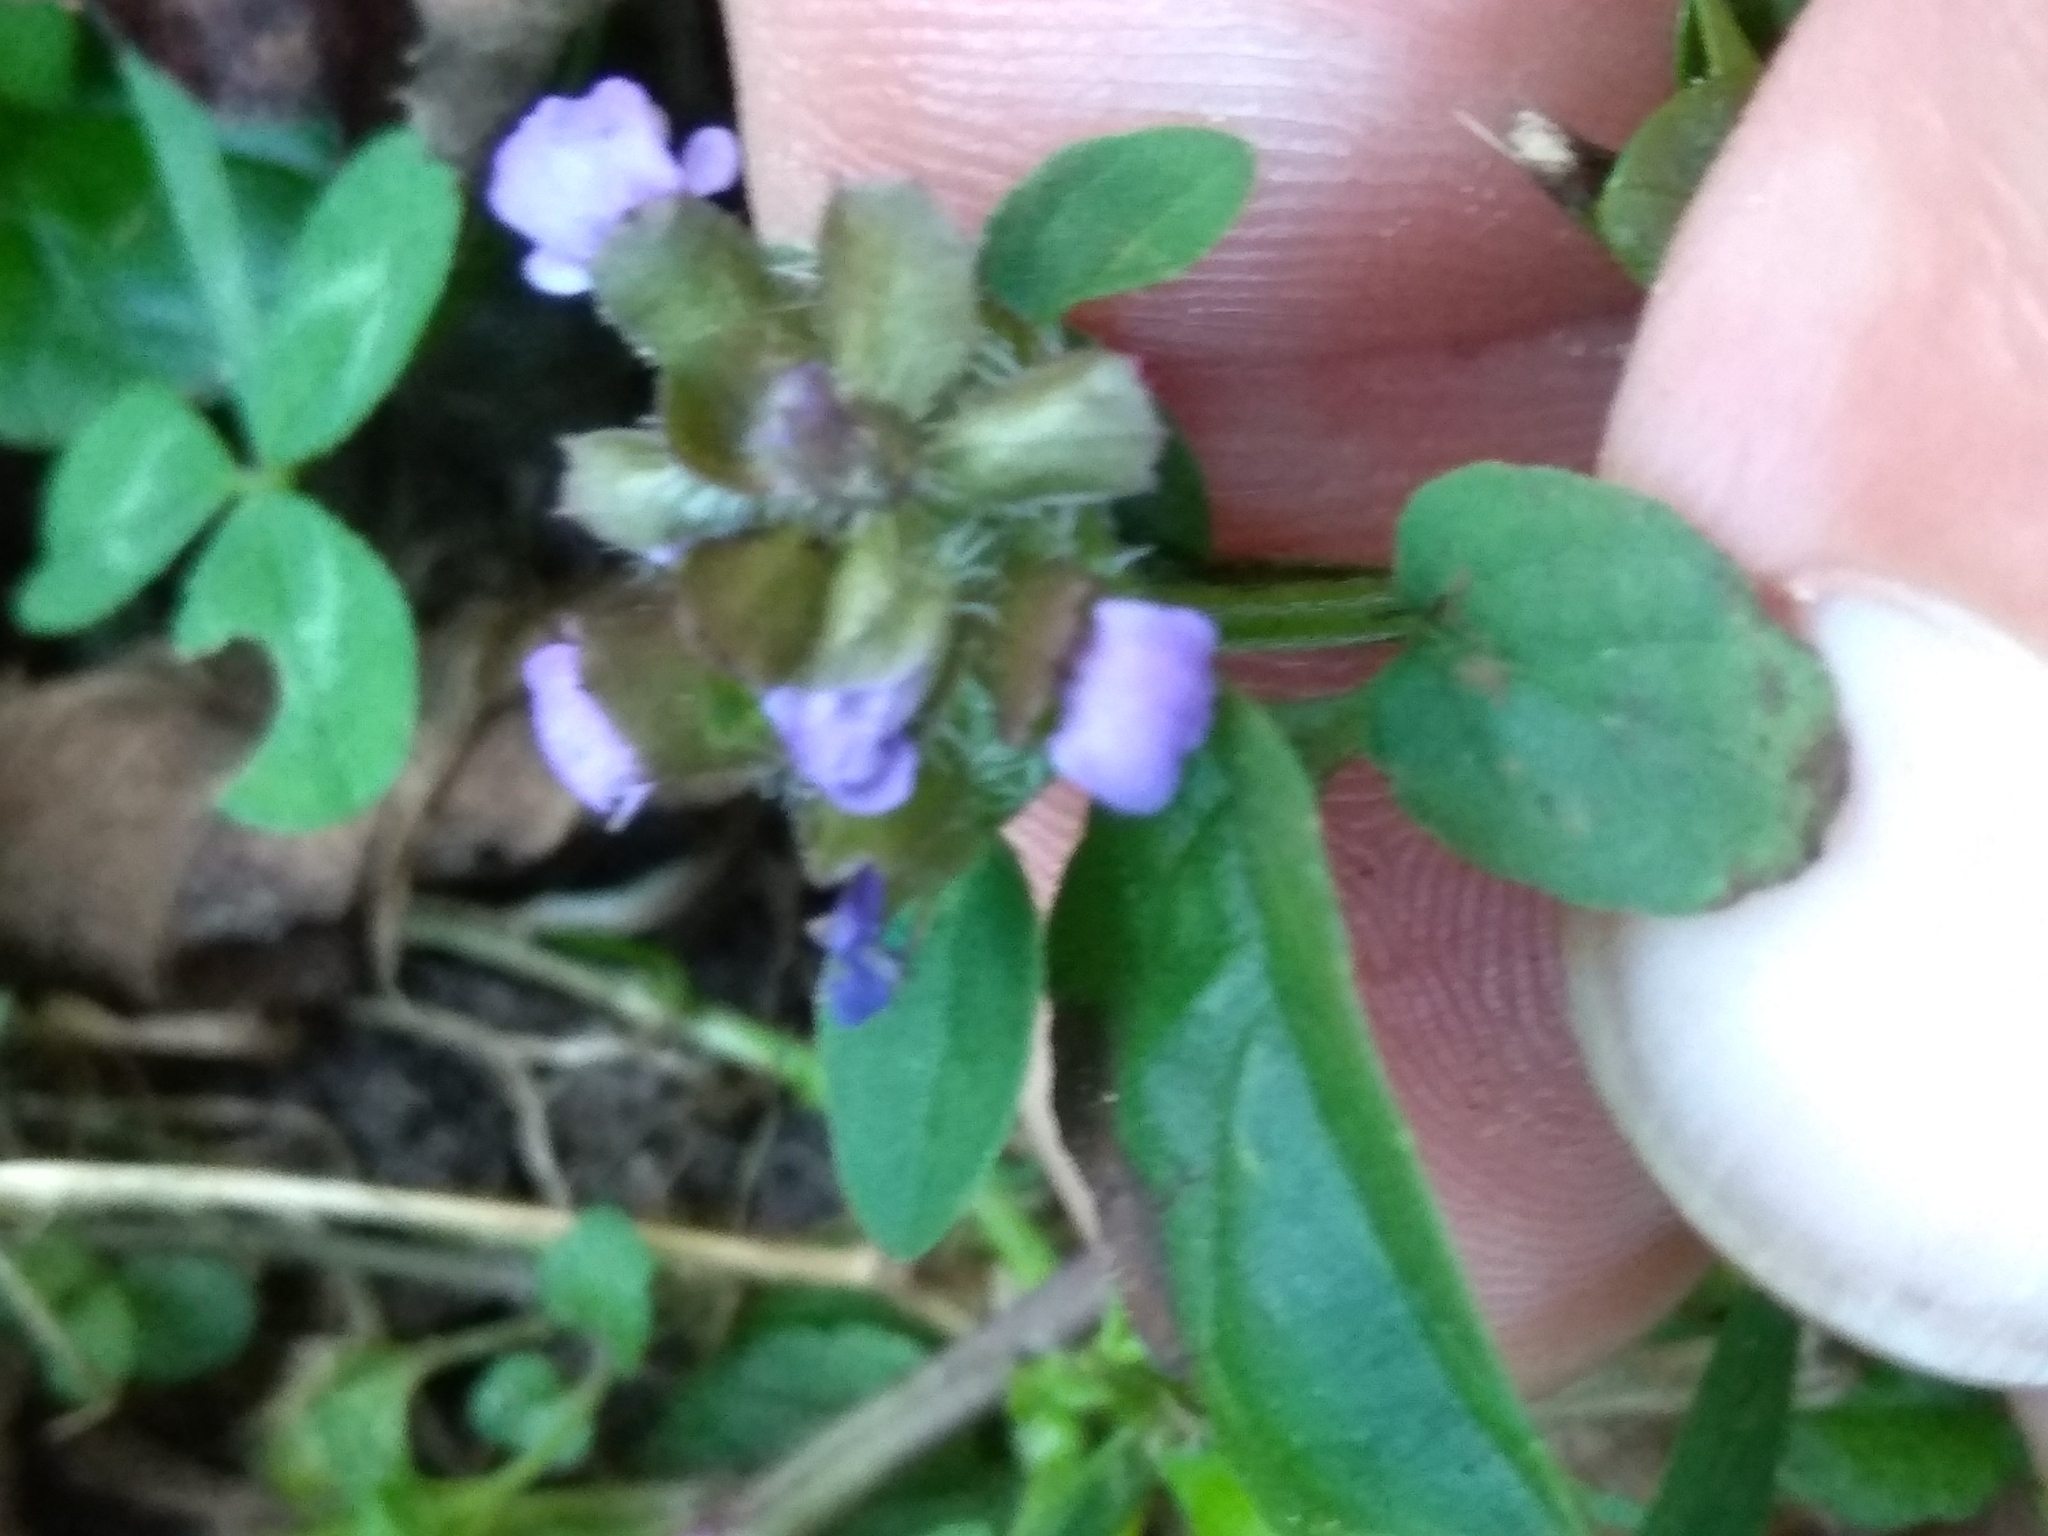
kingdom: Plantae
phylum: Tracheophyta
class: Magnoliopsida
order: Lamiales
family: Lamiaceae
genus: Prunella
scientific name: Prunella vulgaris
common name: Heal-all
